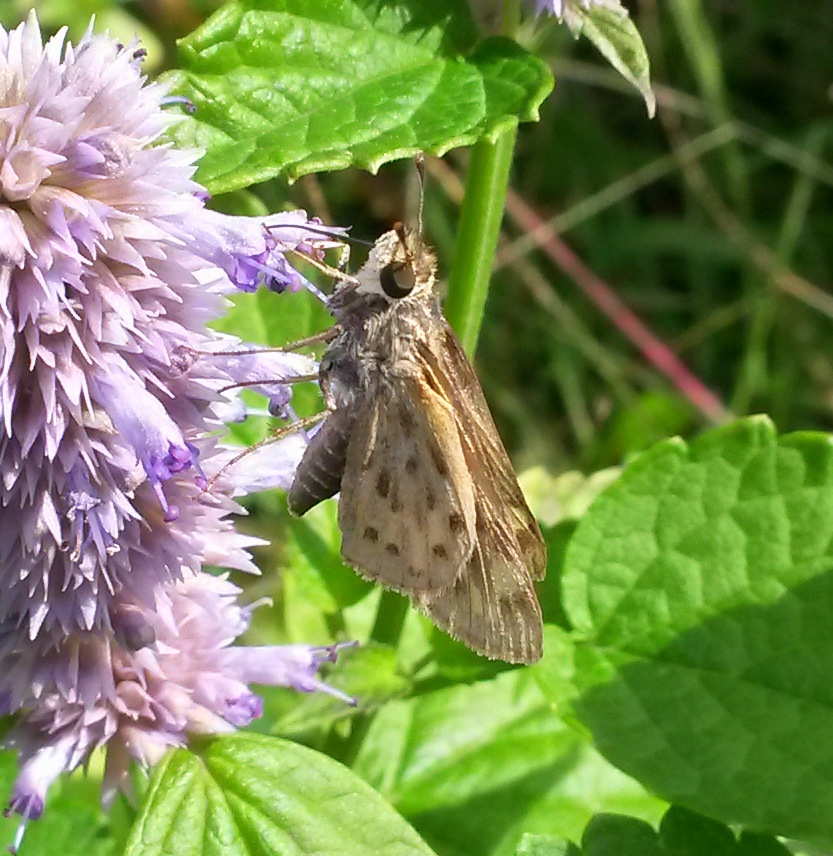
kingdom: Animalia
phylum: Arthropoda
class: Insecta
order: Lepidoptera
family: Hesperiidae
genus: Hylephila
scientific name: Hylephila phyleus
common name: Fiery skipper
